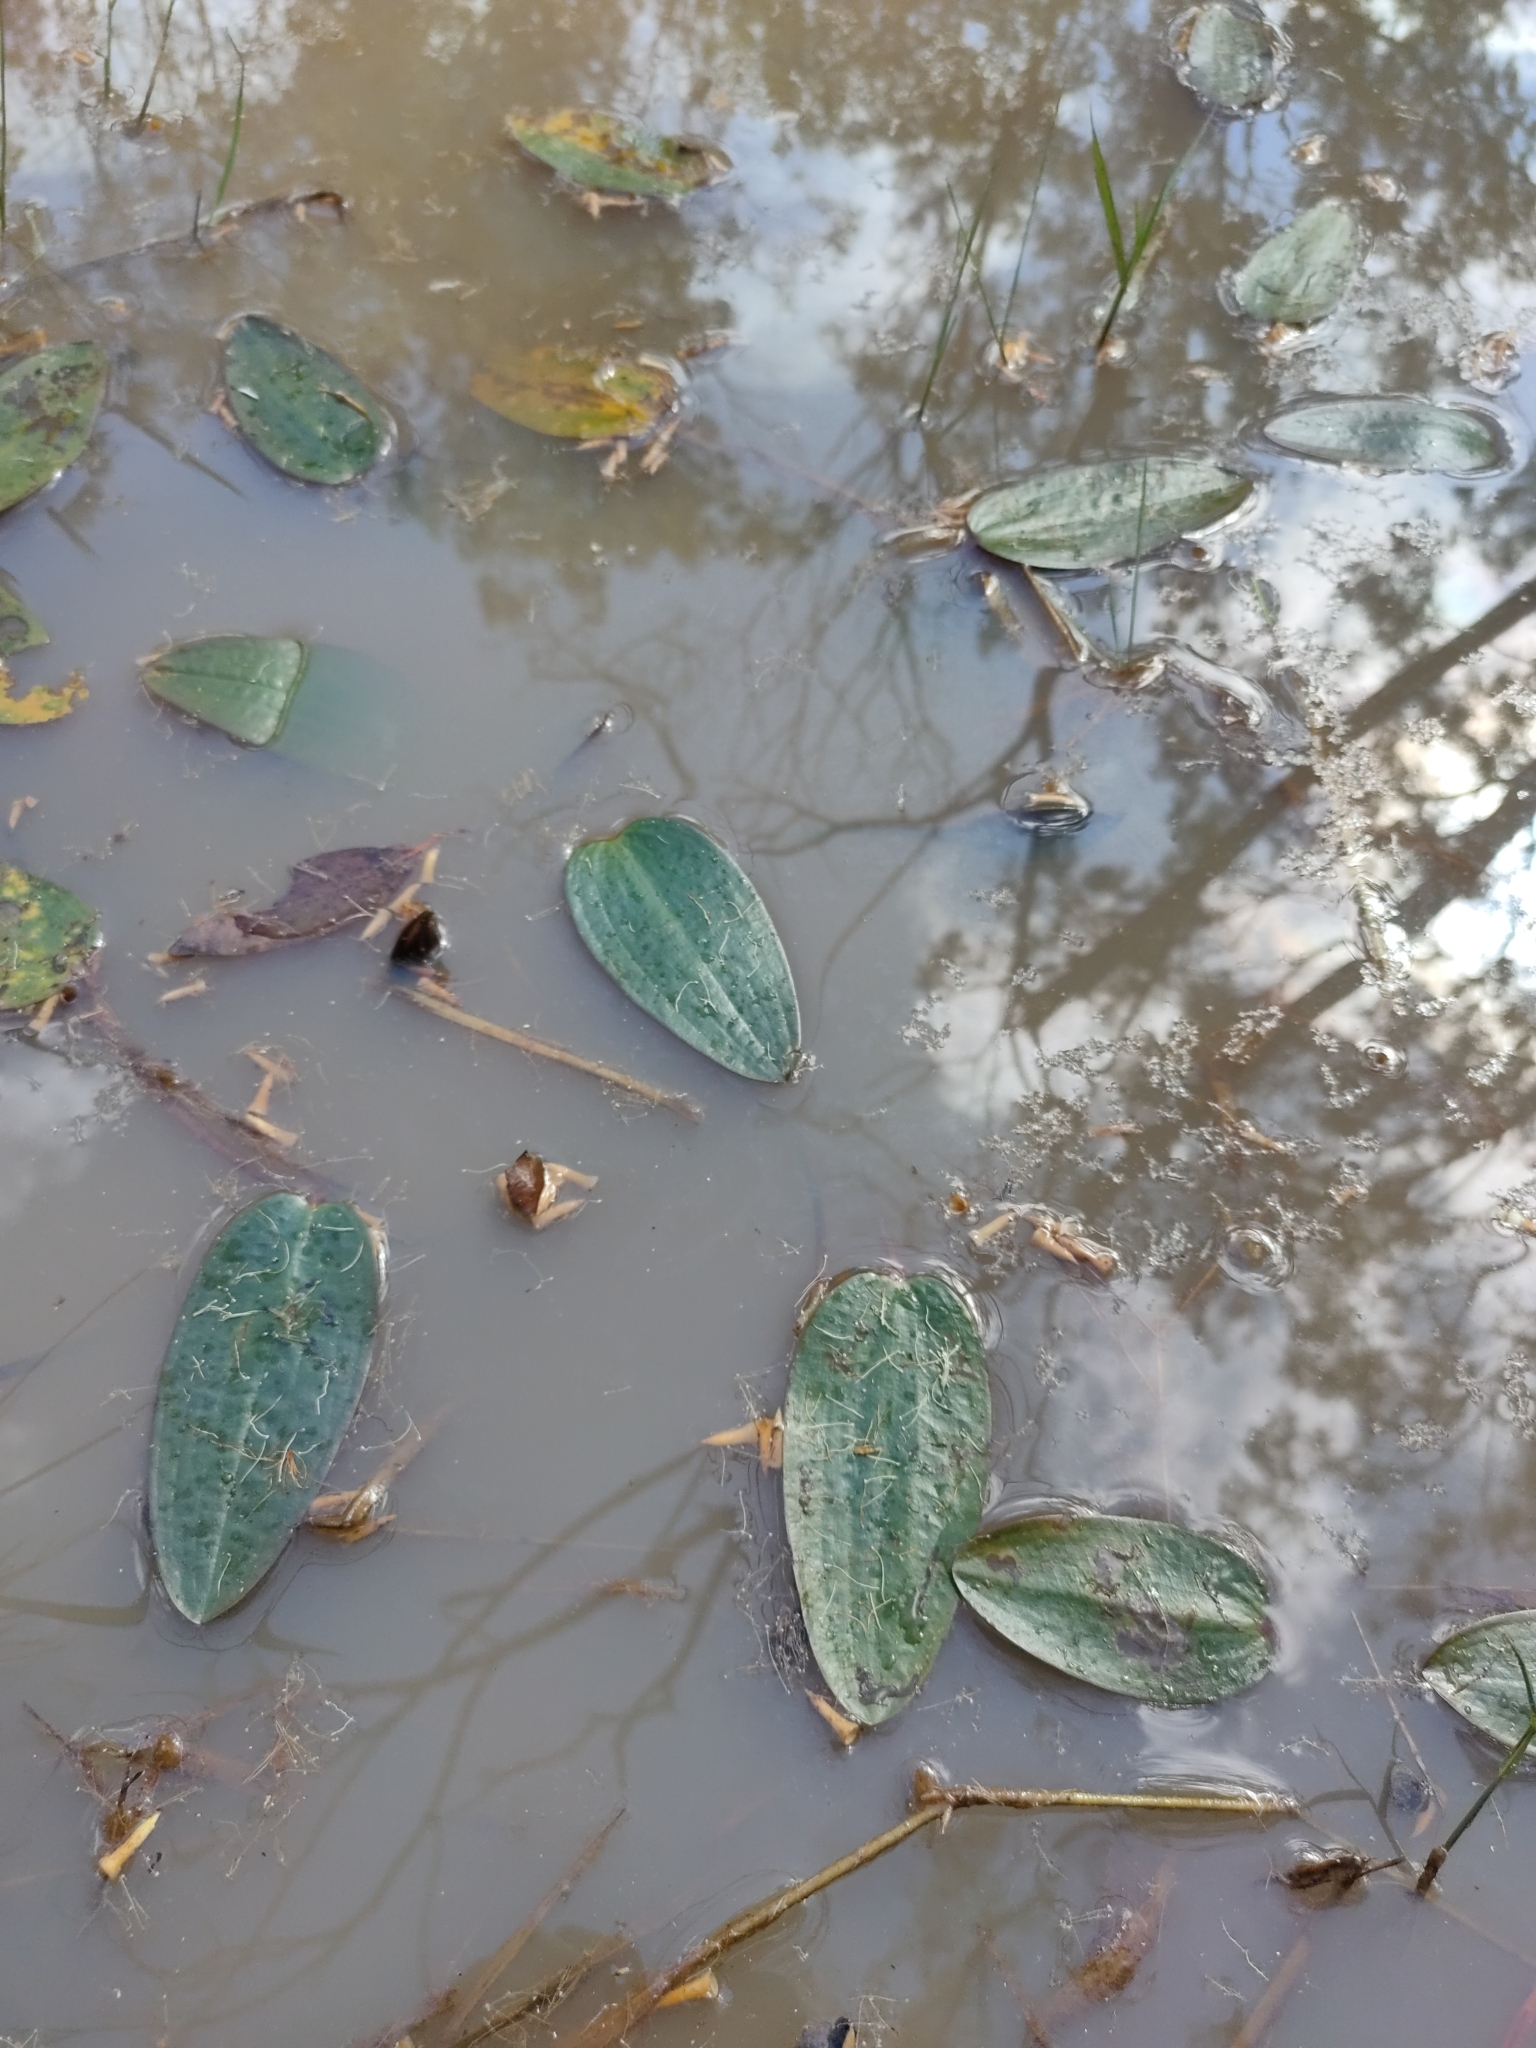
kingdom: Plantae
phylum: Tracheophyta
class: Liliopsida
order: Alismatales
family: Hydrocharitaceae
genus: Ottelia
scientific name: Ottelia ovalifolia
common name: Swamp-lily
